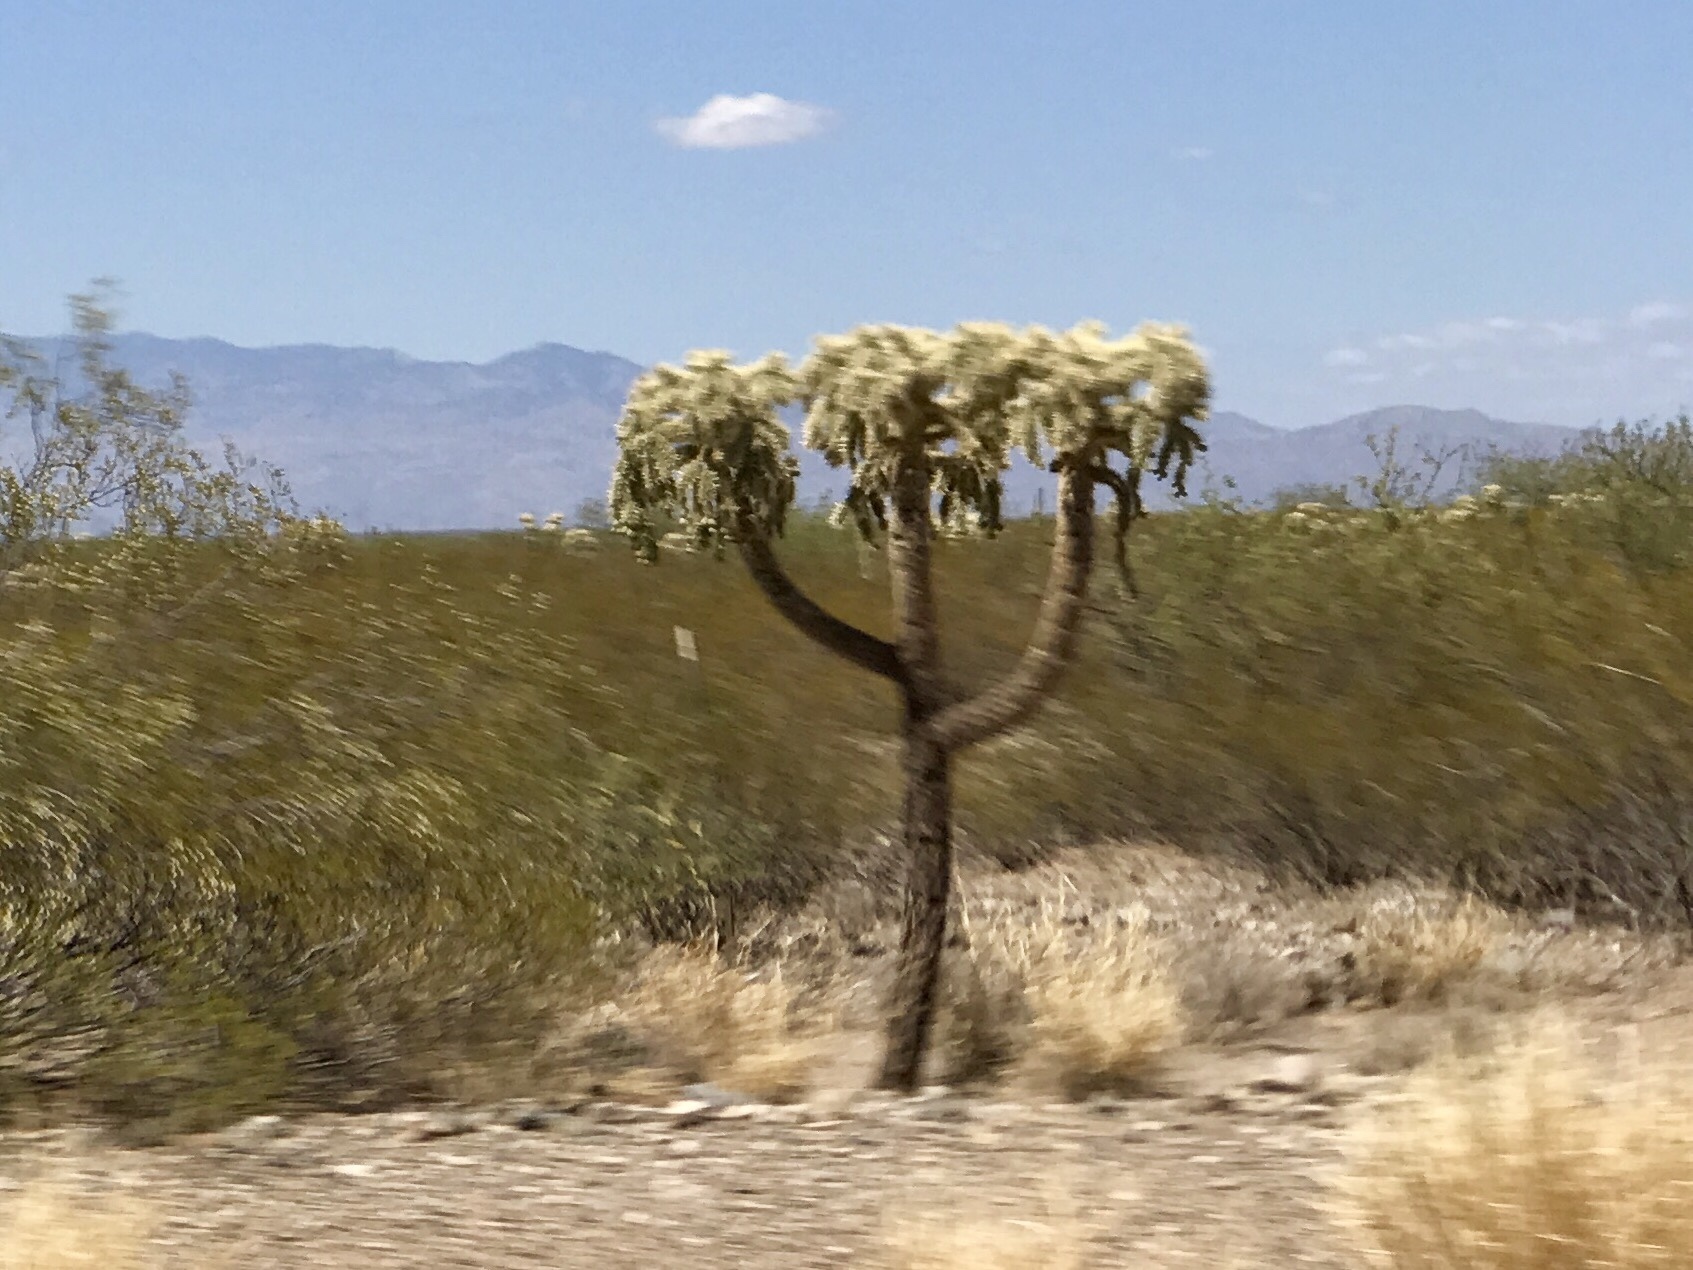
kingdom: Plantae
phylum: Tracheophyta
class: Magnoliopsida
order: Caryophyllales
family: Cactaceae
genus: Cylindropuntia
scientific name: Cylindropuntia fulgida
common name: Jumping cholla
